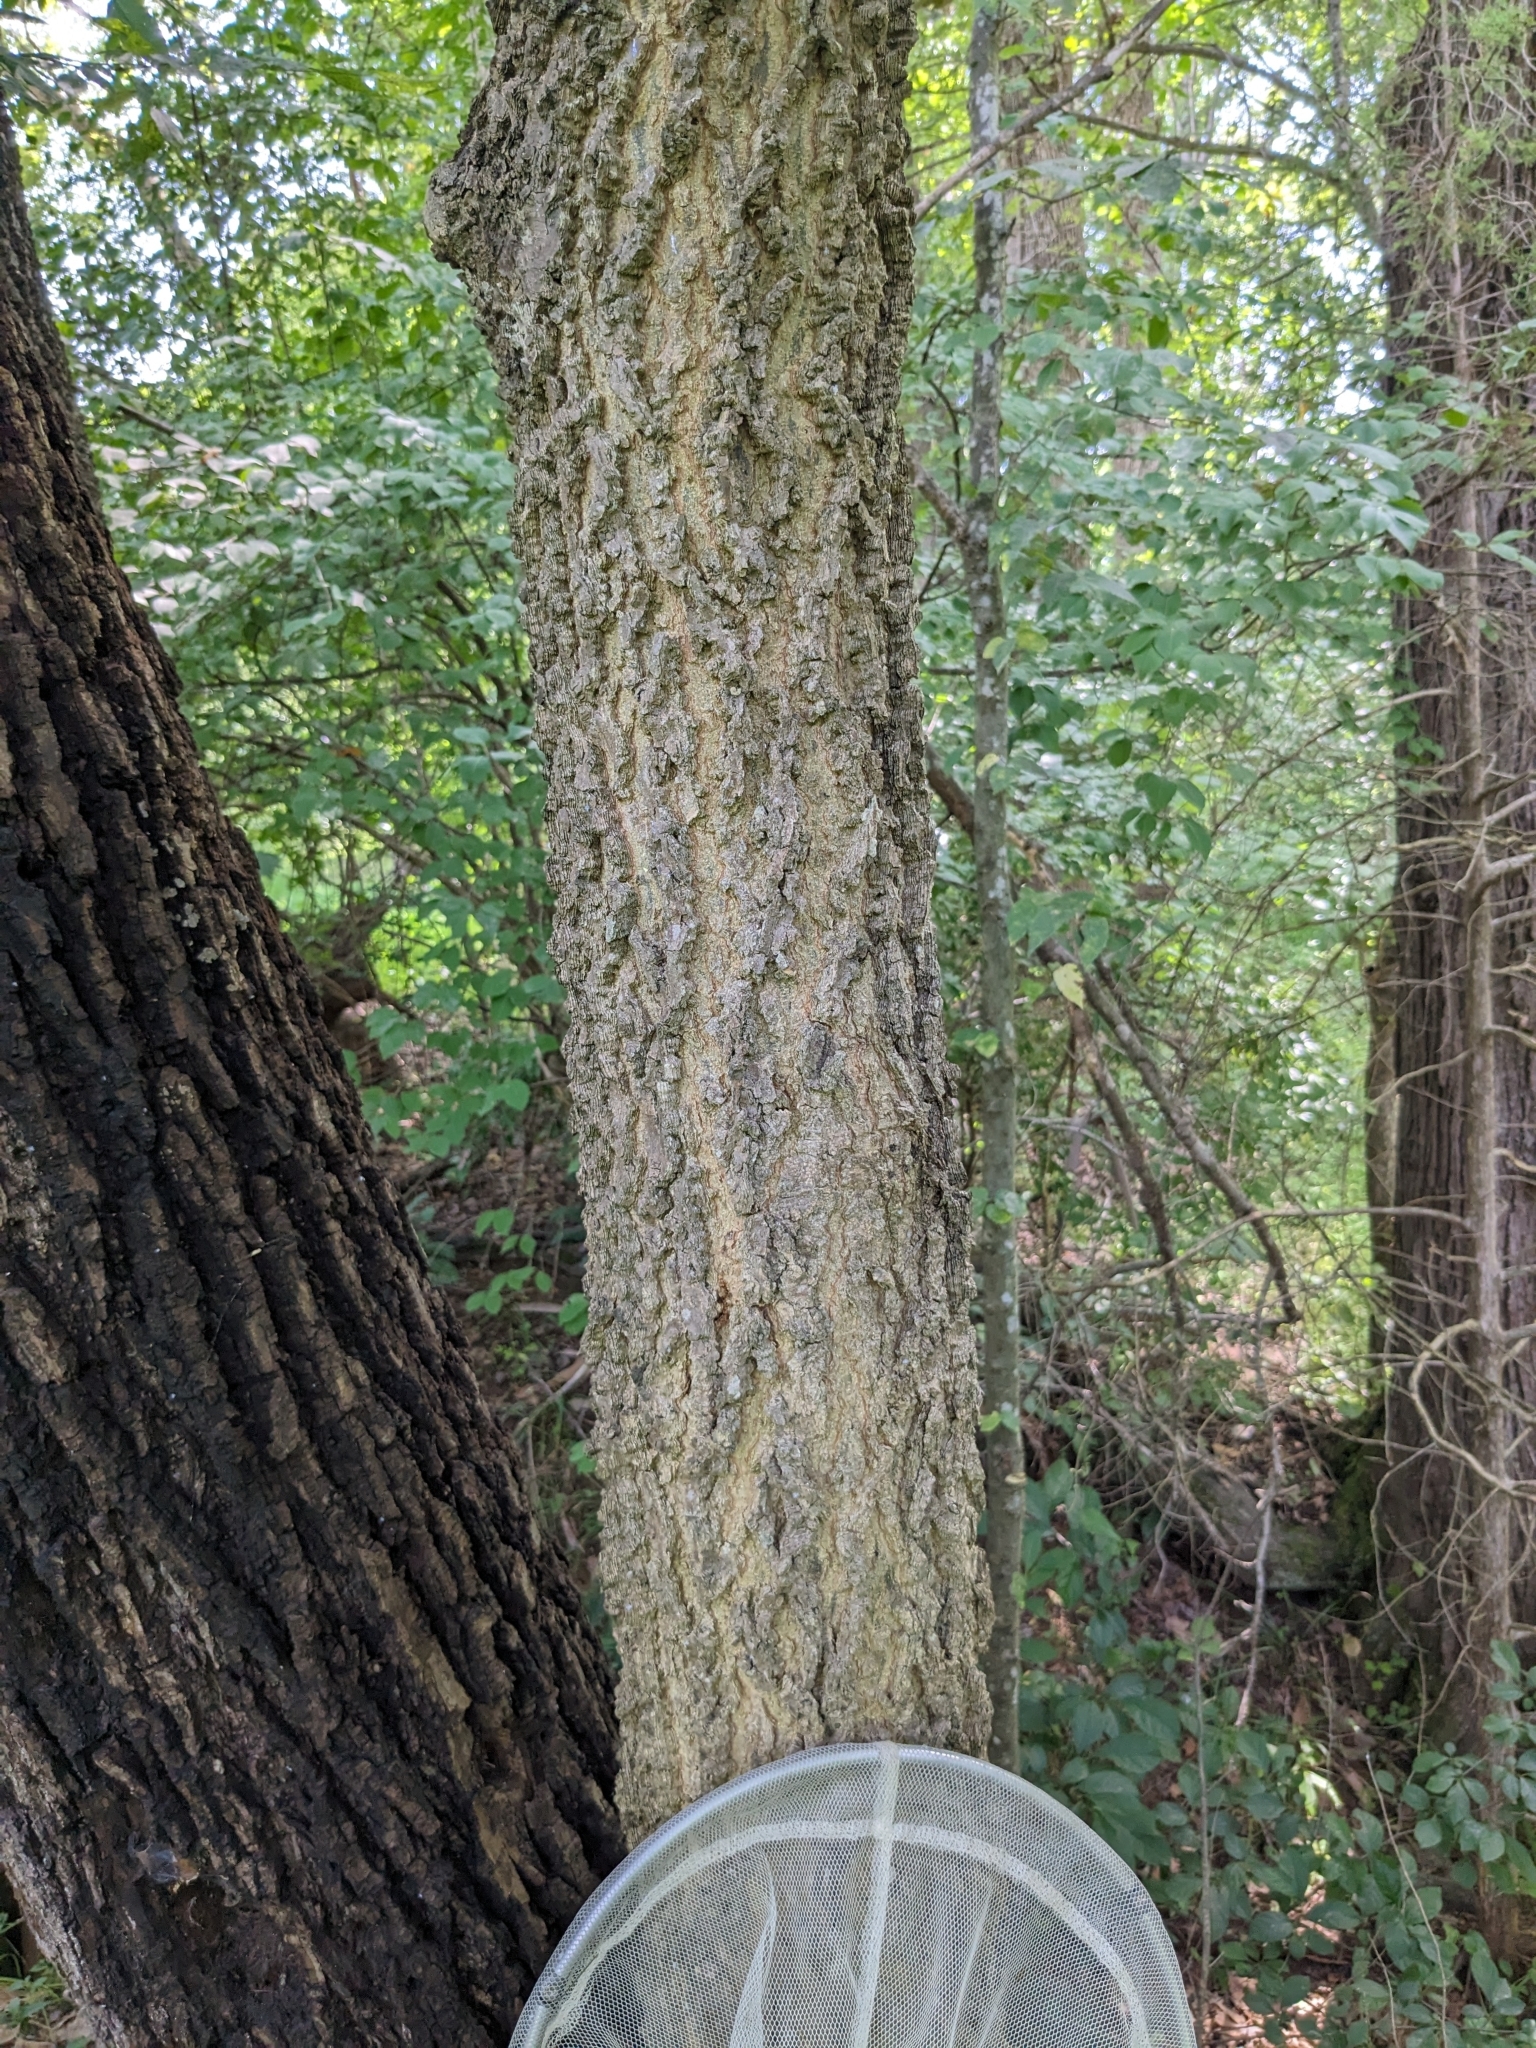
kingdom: Plantae
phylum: Tracheophyta
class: Magnoliopsida
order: Rosales
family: Cannabaceae
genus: Celtis
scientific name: Celtis occidentalis
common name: Common hackberry
